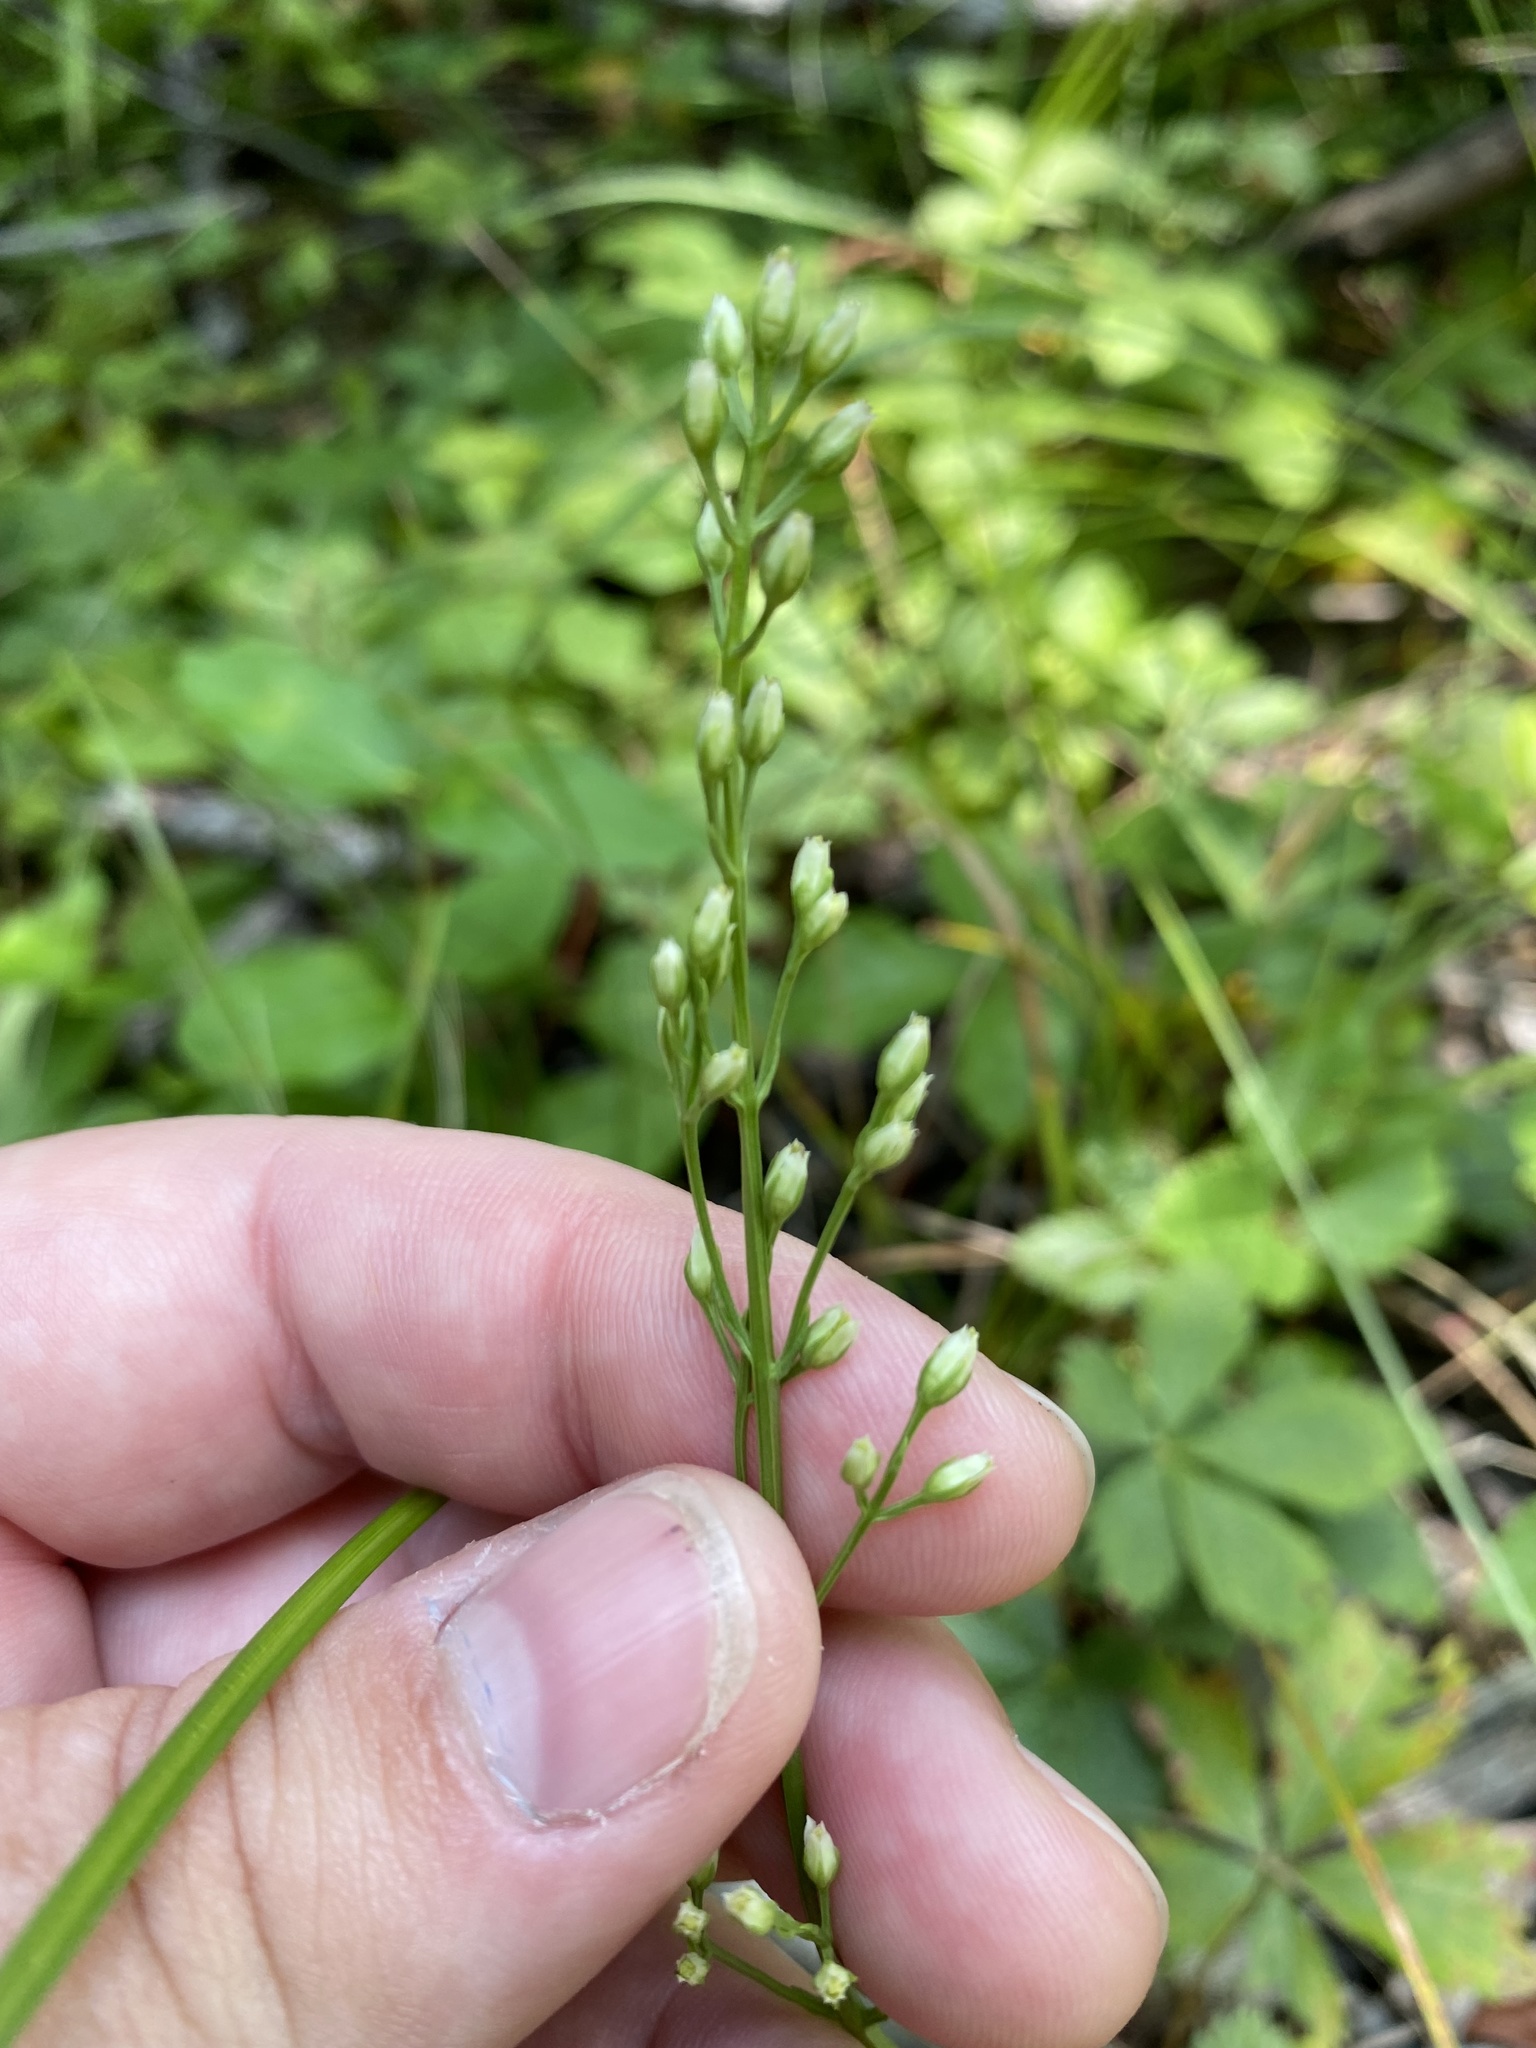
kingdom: Plantae
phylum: Tracheophyta
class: Magnoliopsida
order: Gentianales
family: Gentianaceae
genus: Bartonia
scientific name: Bartonia virginica
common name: Yellow bartonia
